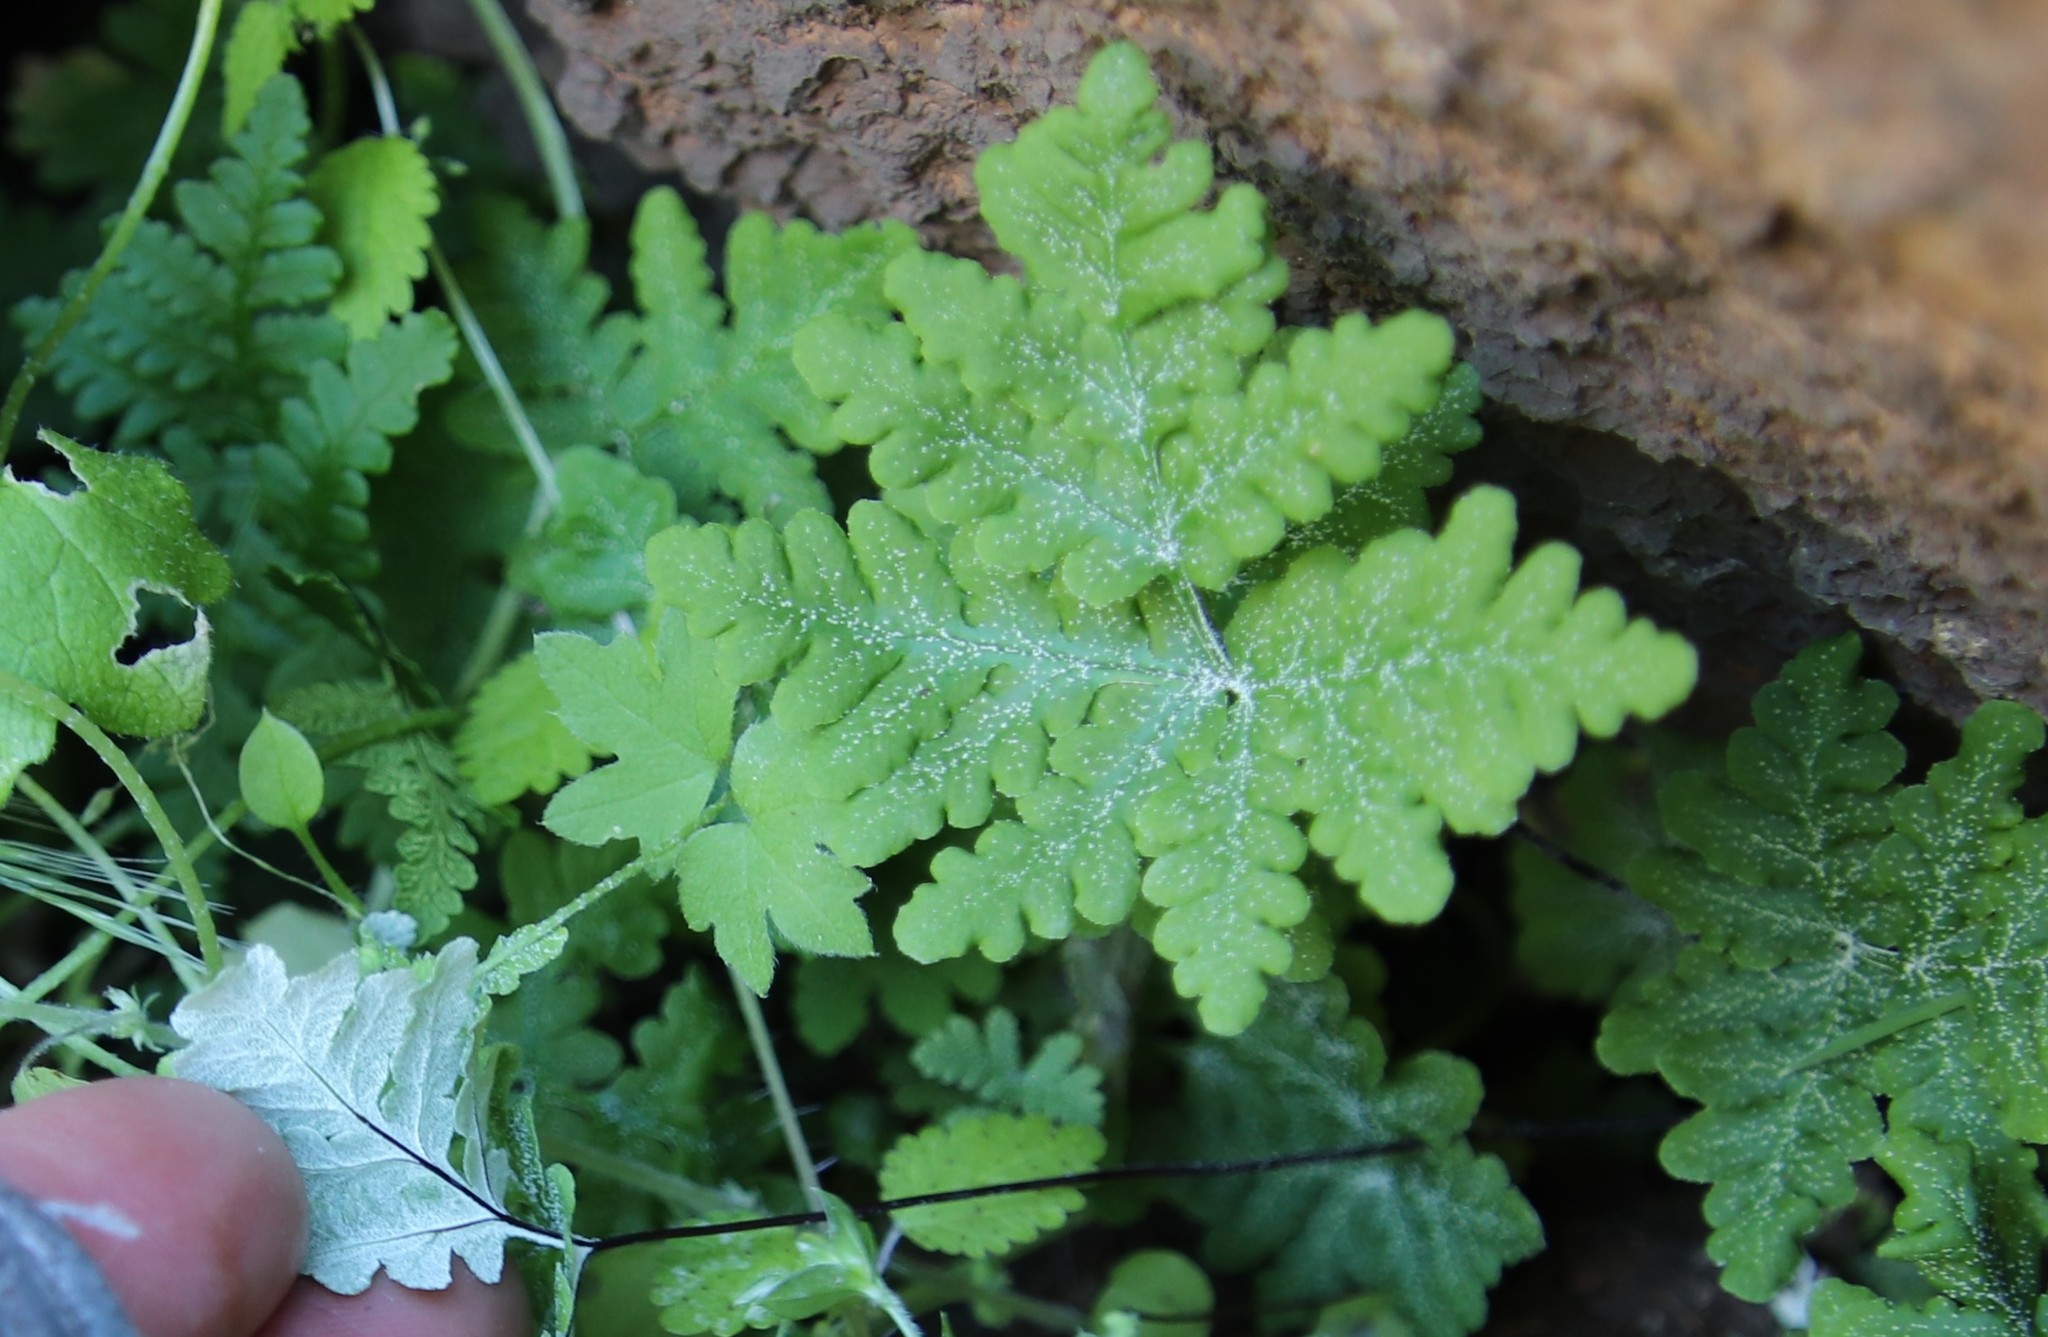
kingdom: Plantae
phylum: Tracheophyta
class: Polypodiopsida
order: Polypodiales
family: Pteridaceae
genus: Pentagramma
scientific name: Pentagramma rebmanii
